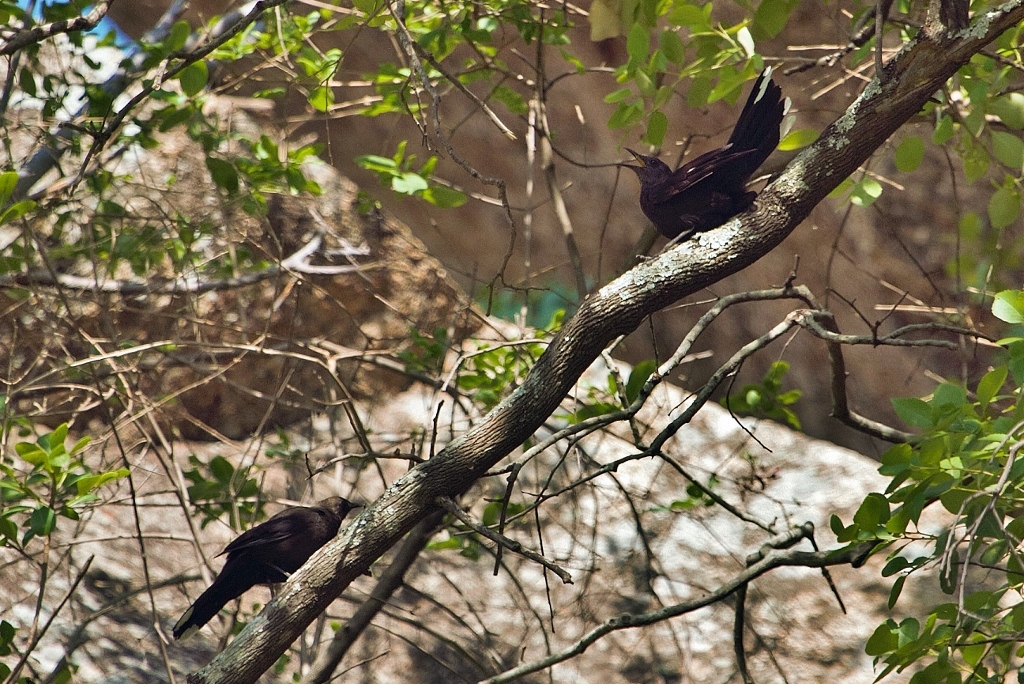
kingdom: Animalia
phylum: Chordata
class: Aves
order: Passeriformes
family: Muscicapidae
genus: Pinarornis
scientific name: Pinarornis plumosus
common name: Boulder chat
